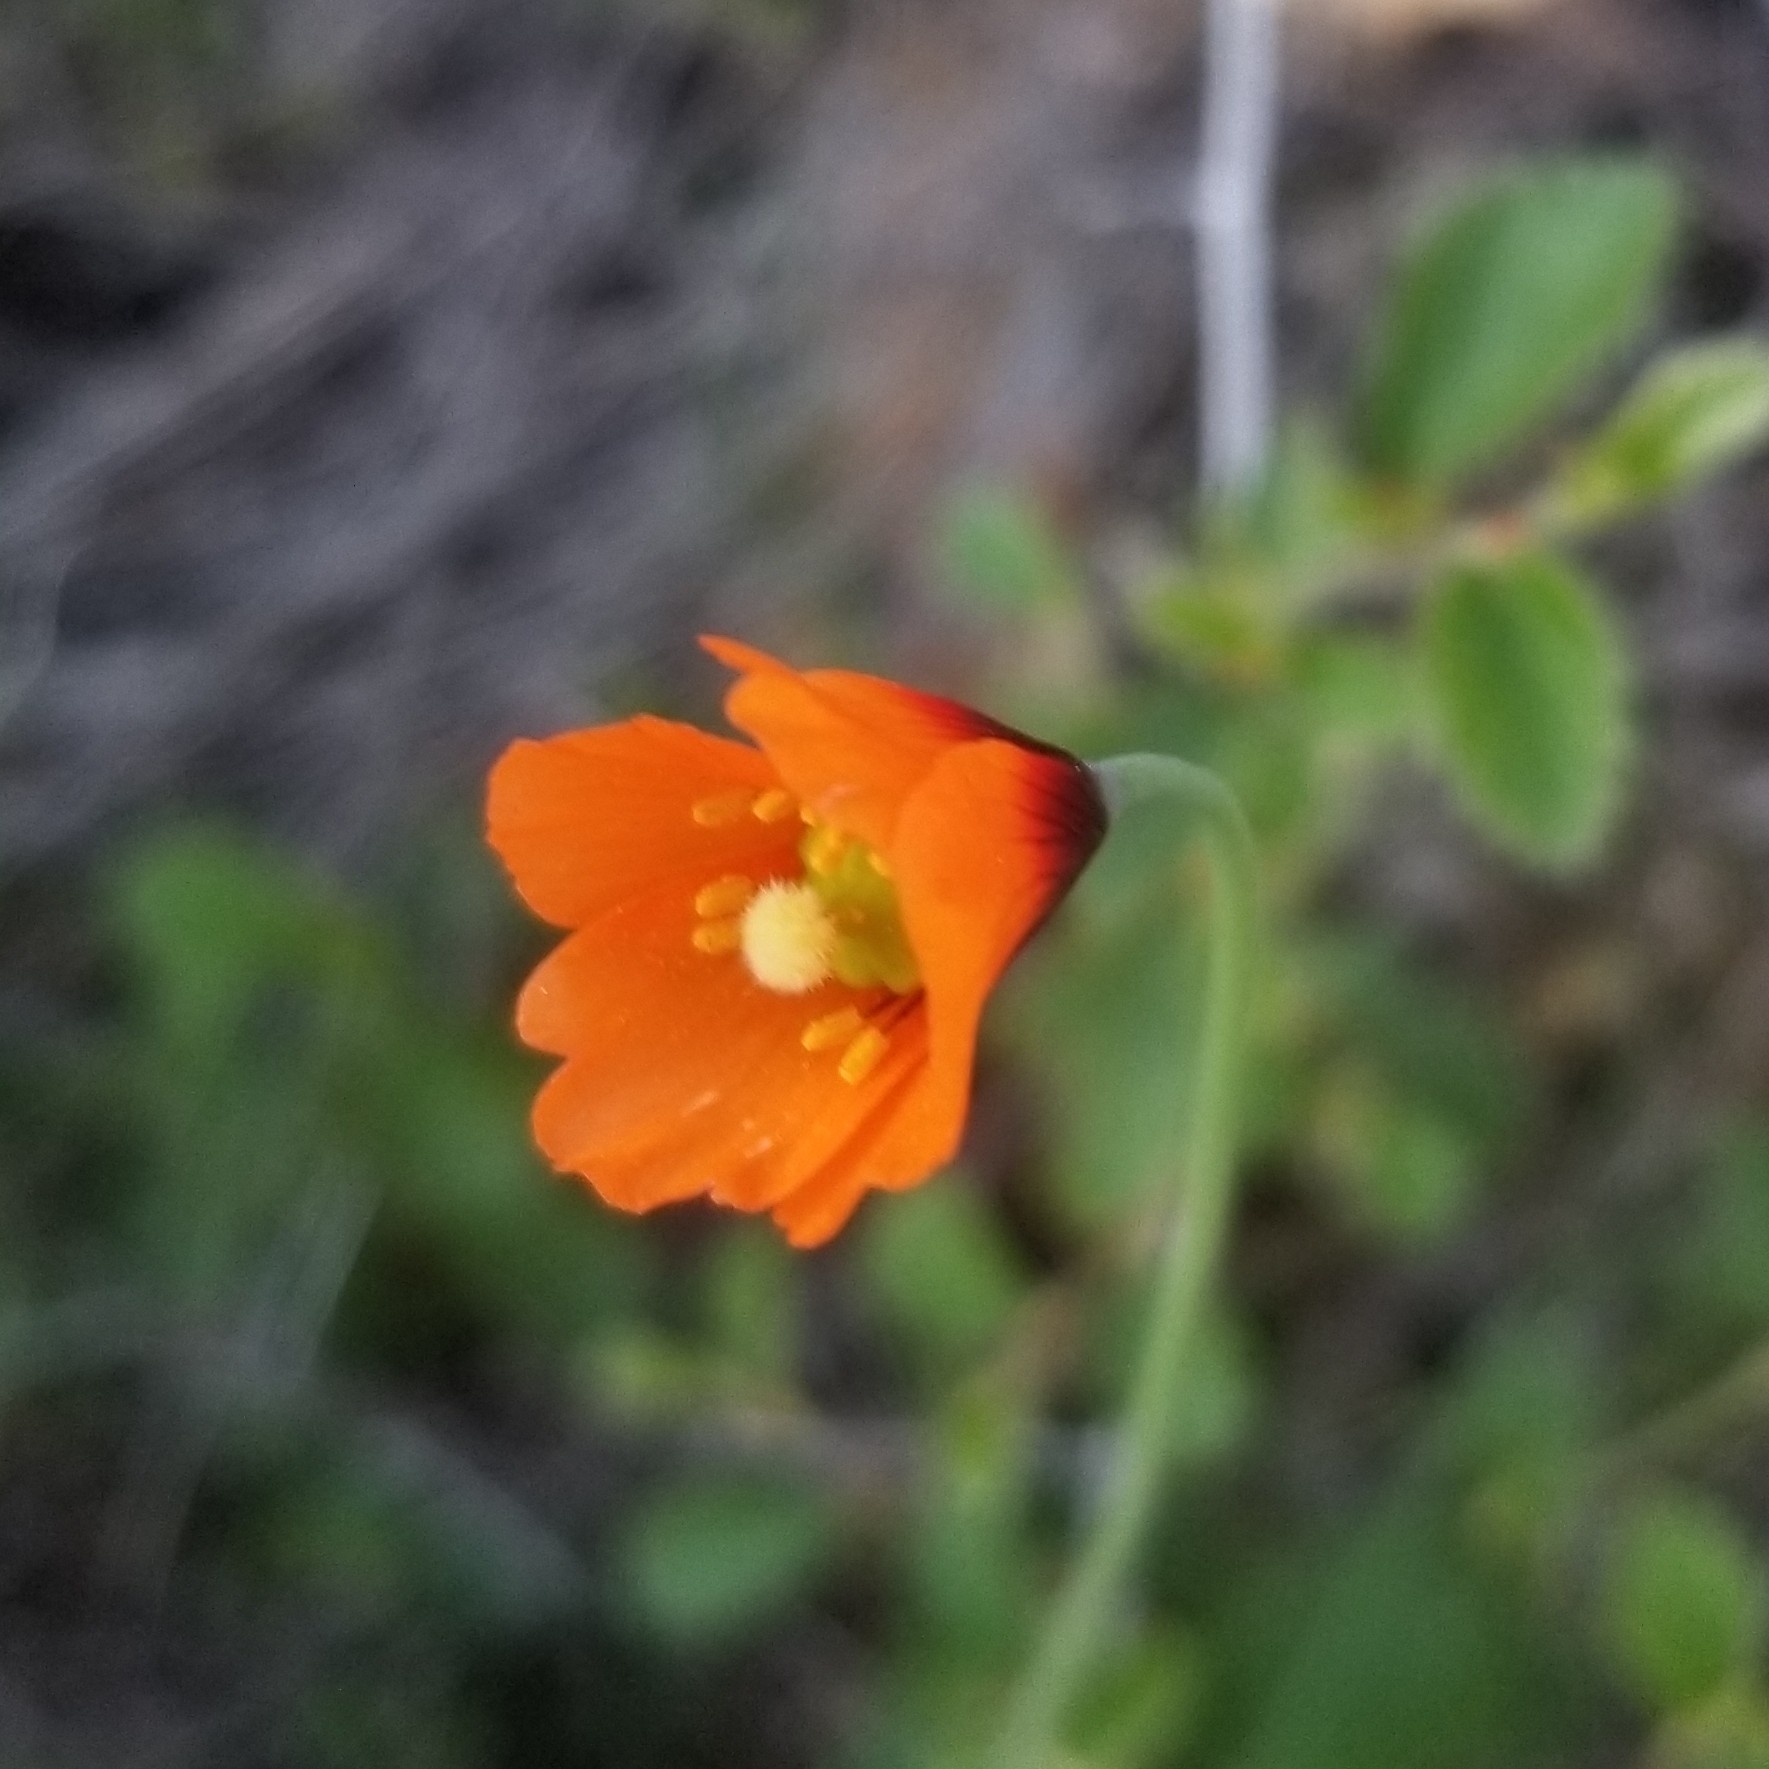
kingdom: Plantae
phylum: Tracheophyta
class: Magnoliopsida
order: Ranunculales
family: Papaveraceae
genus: Stylomecon
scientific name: Stylomecon heterophylla
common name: Flaming-poppy
